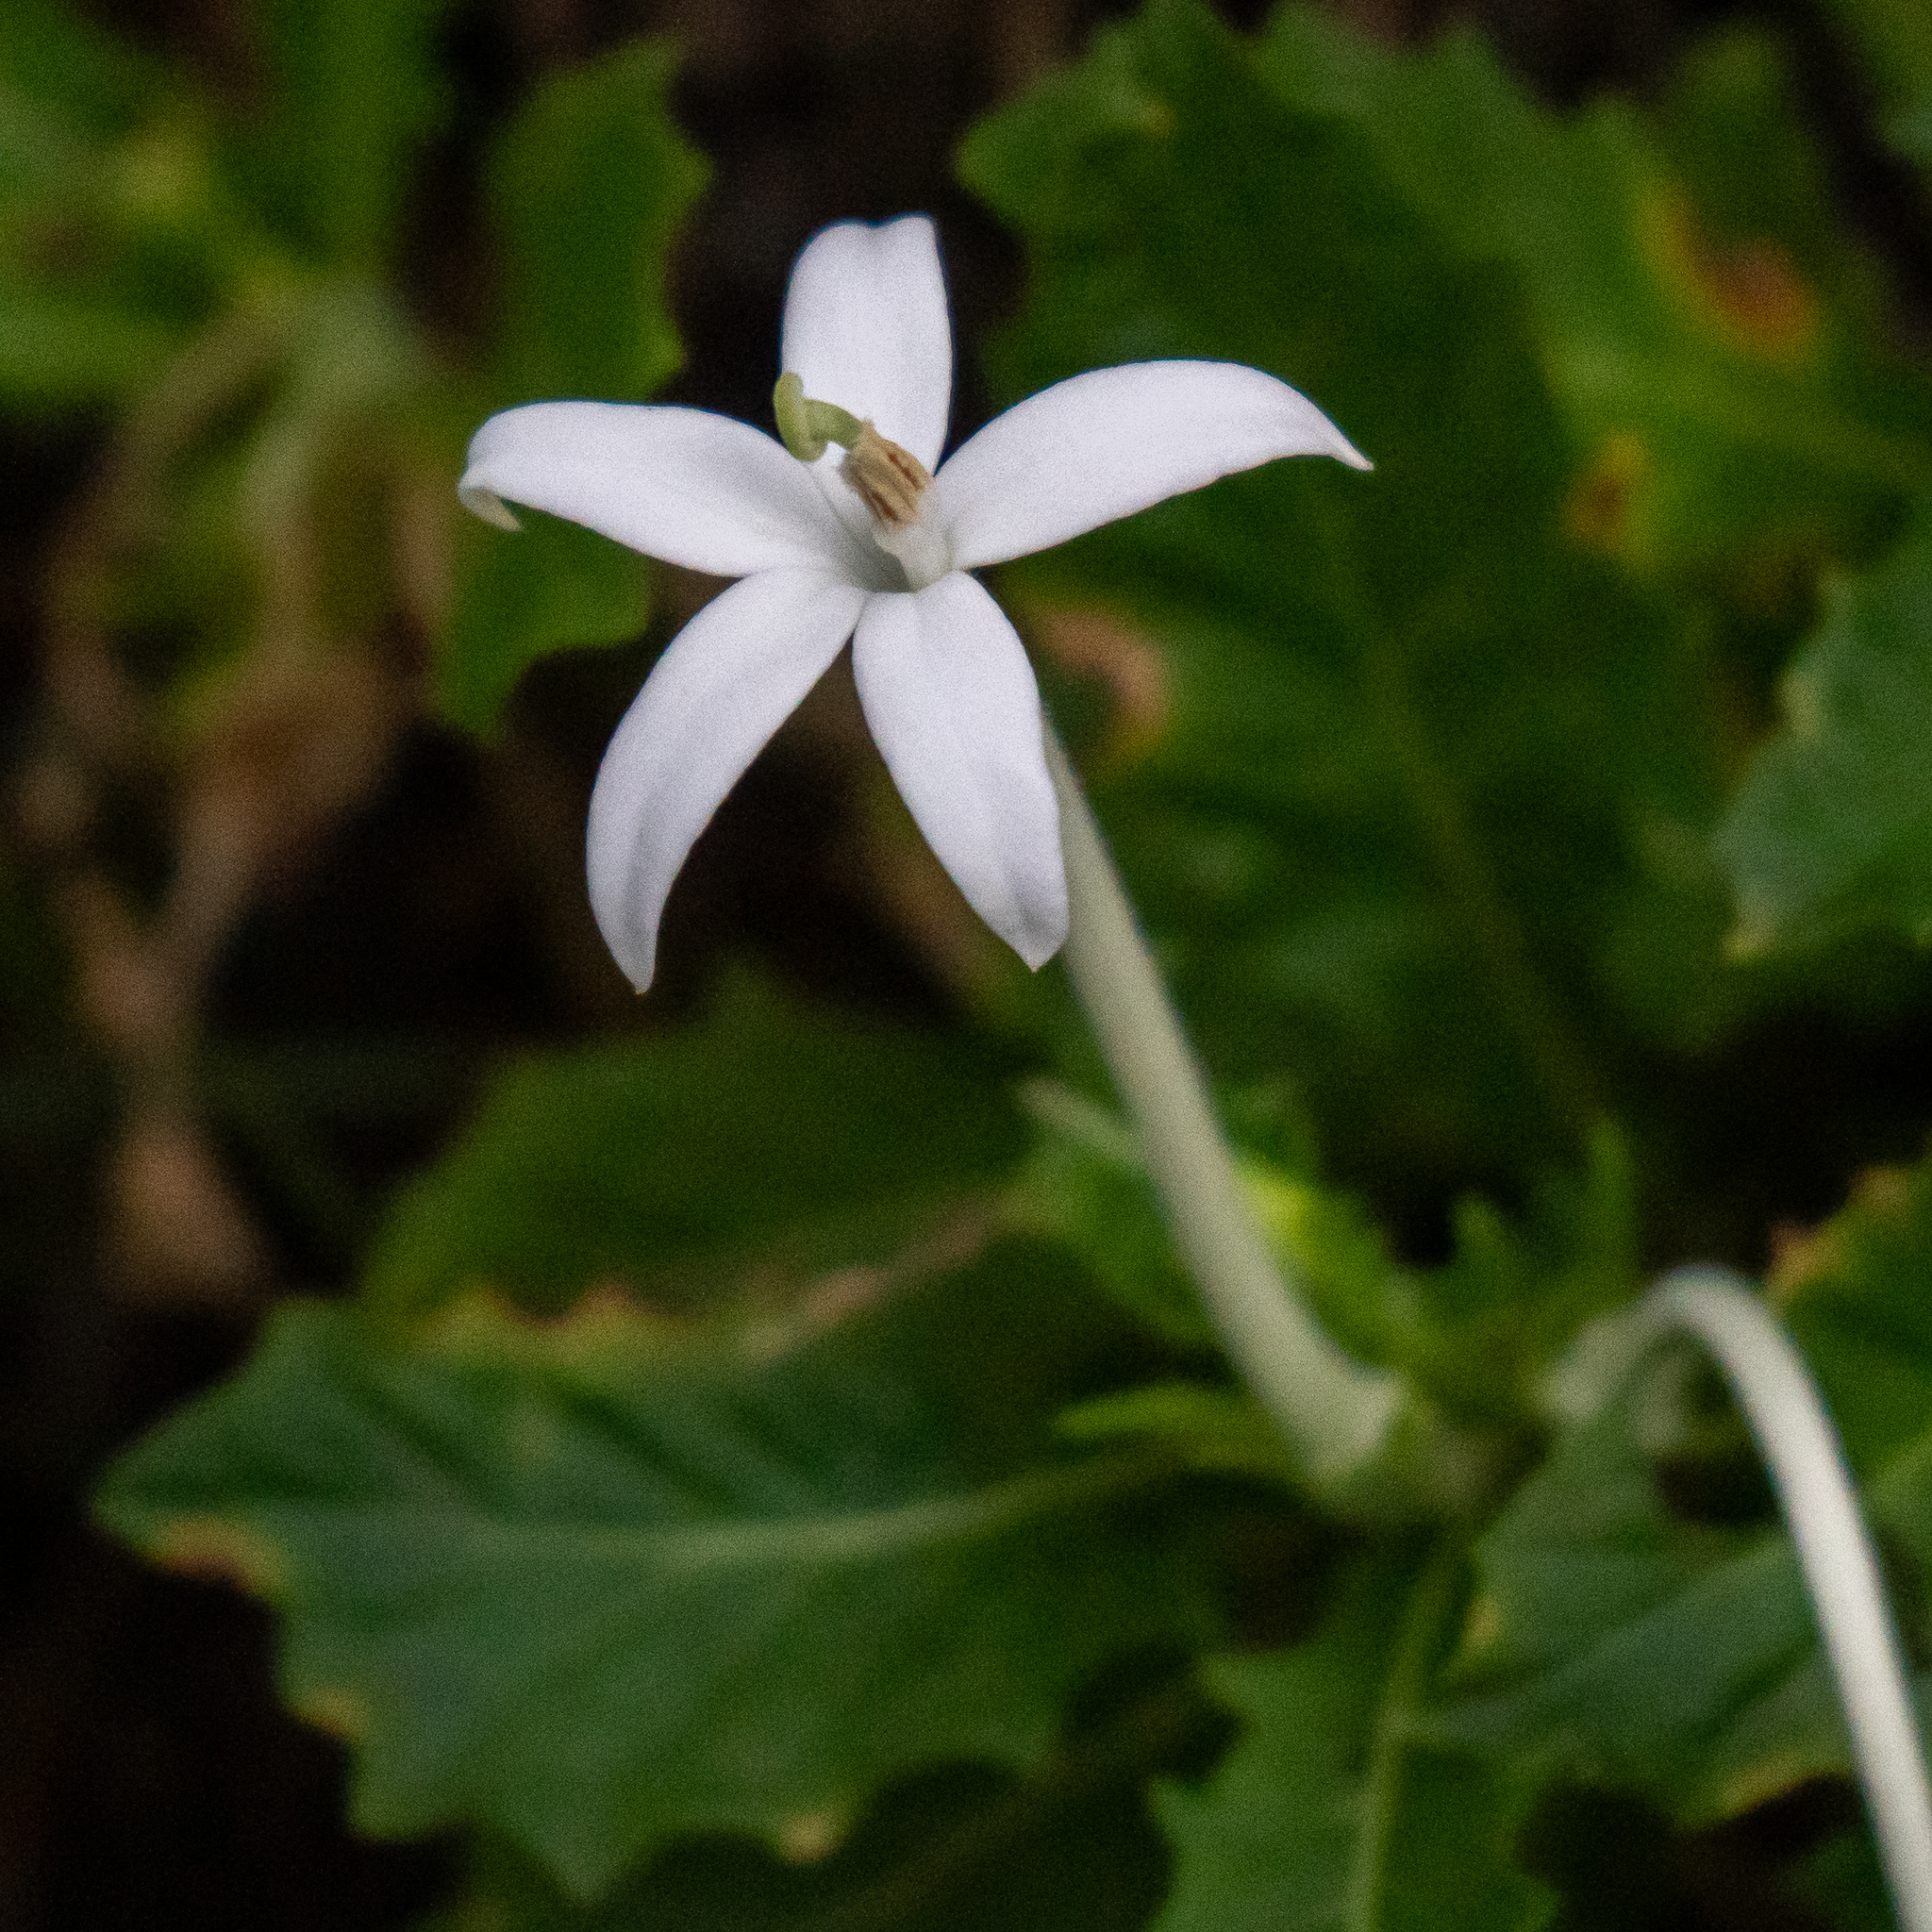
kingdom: Plantae
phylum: Tracheophyta
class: Magnoliopsida
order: Asterales
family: Campanulaceae
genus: Hippobroma
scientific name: Hippobroma longiflora
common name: Madamfate
